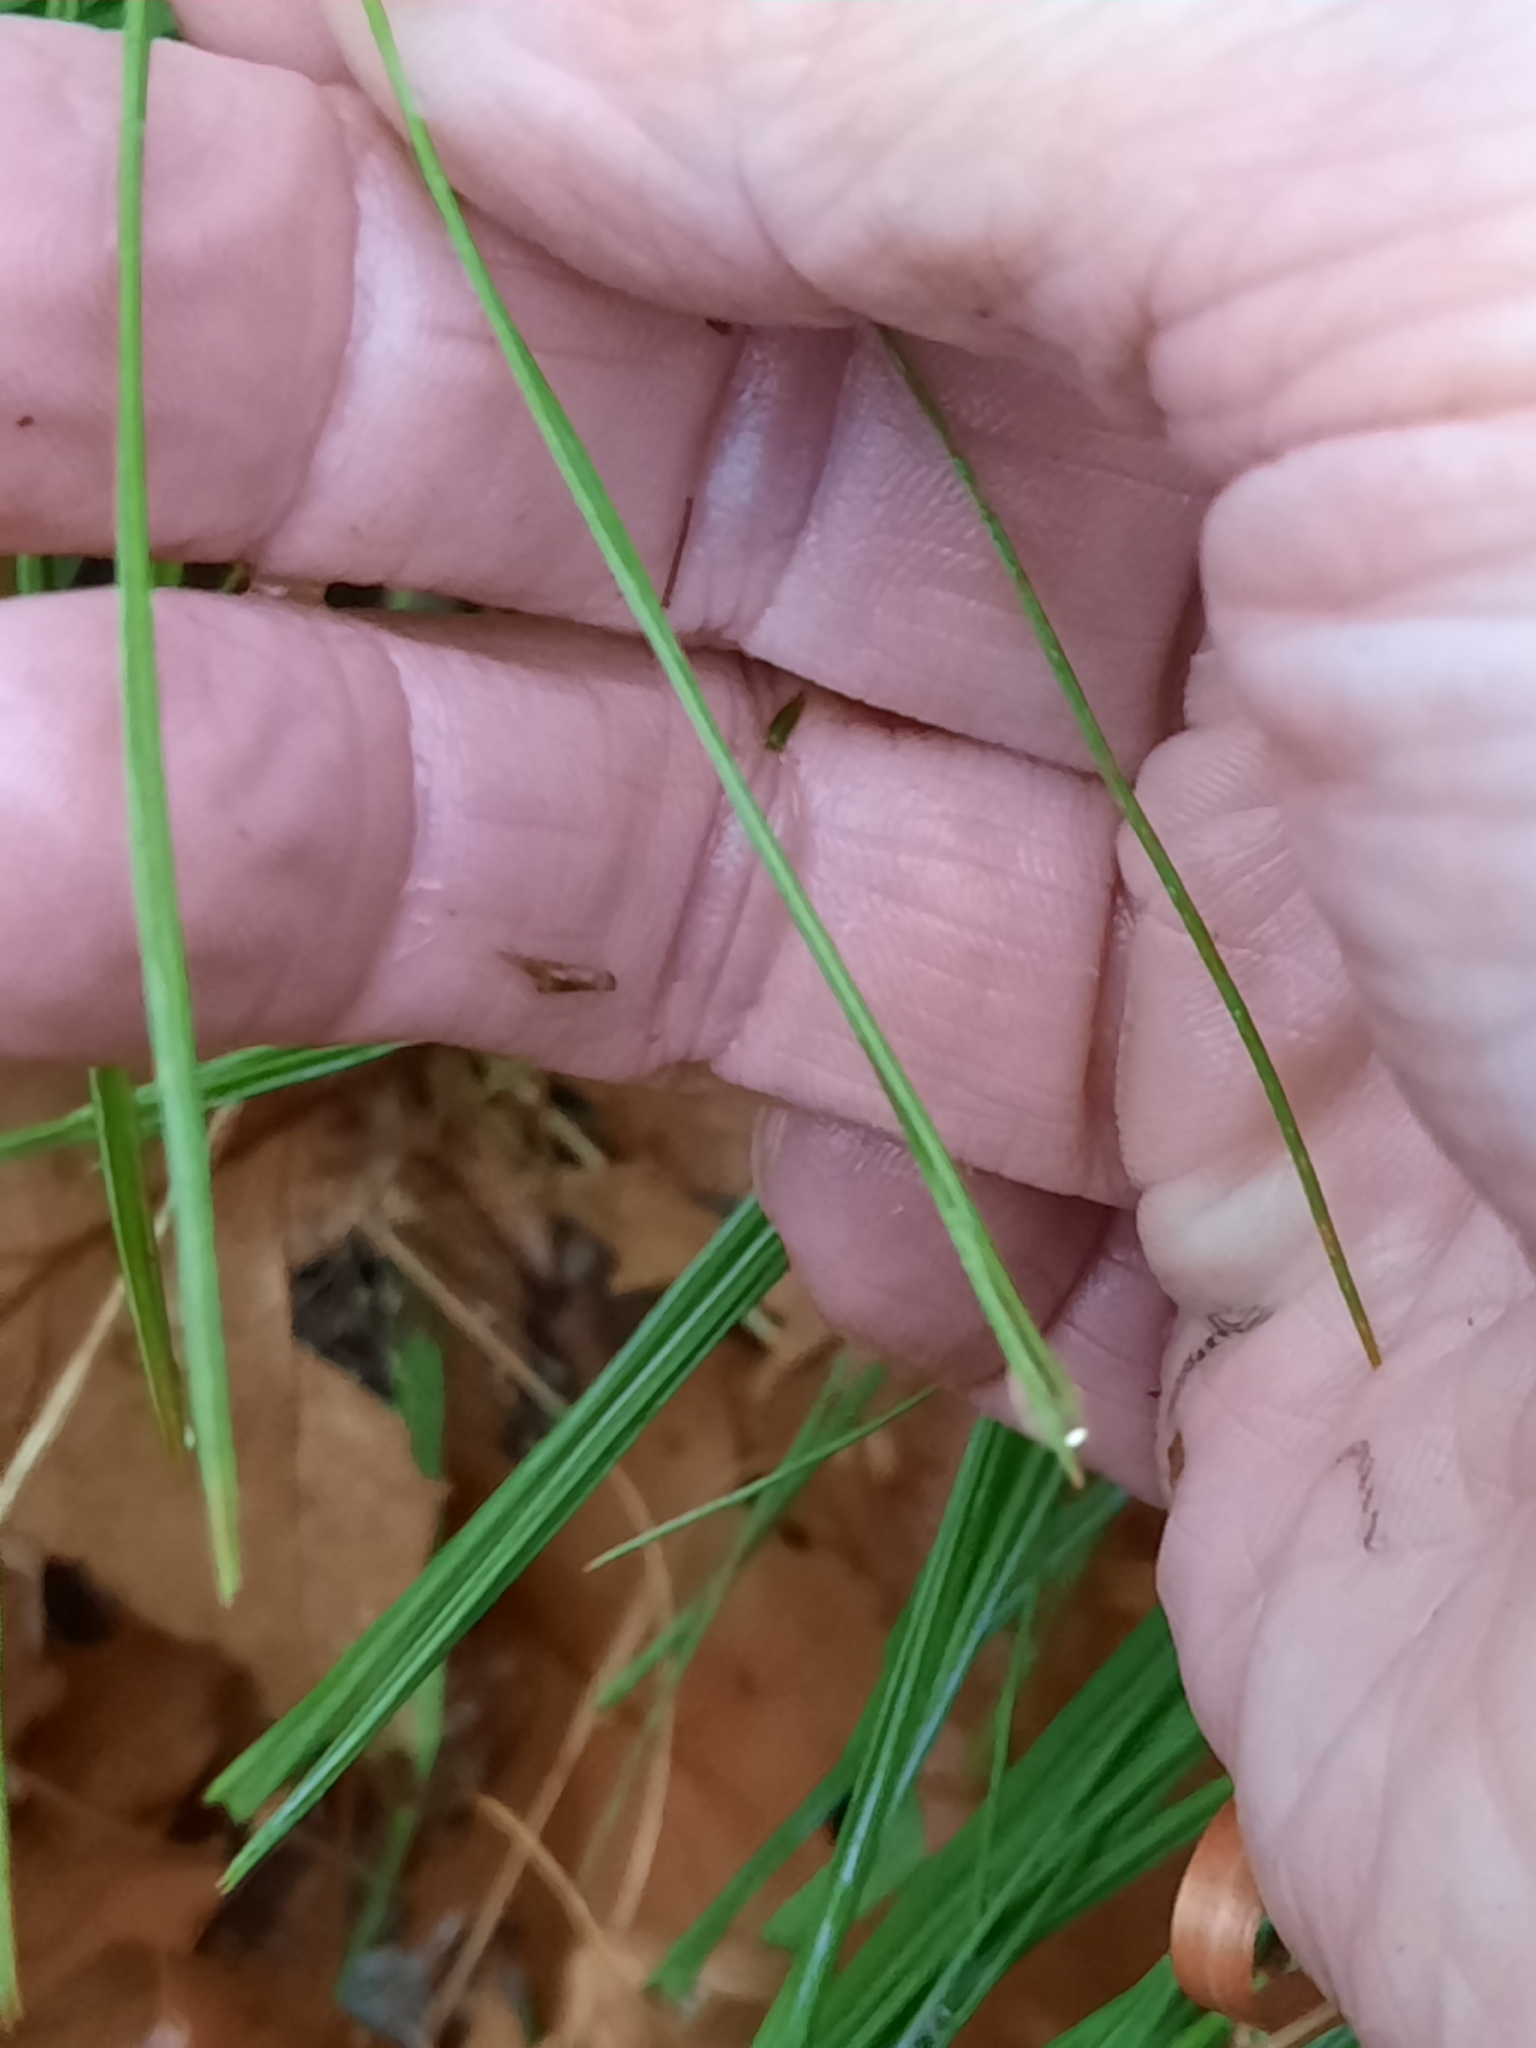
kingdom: Plantae
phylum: Tracheophyta
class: Pinopsida
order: Pinales
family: Pinaceae
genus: Pinus
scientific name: Pinus strobus
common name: Weymouth pine
